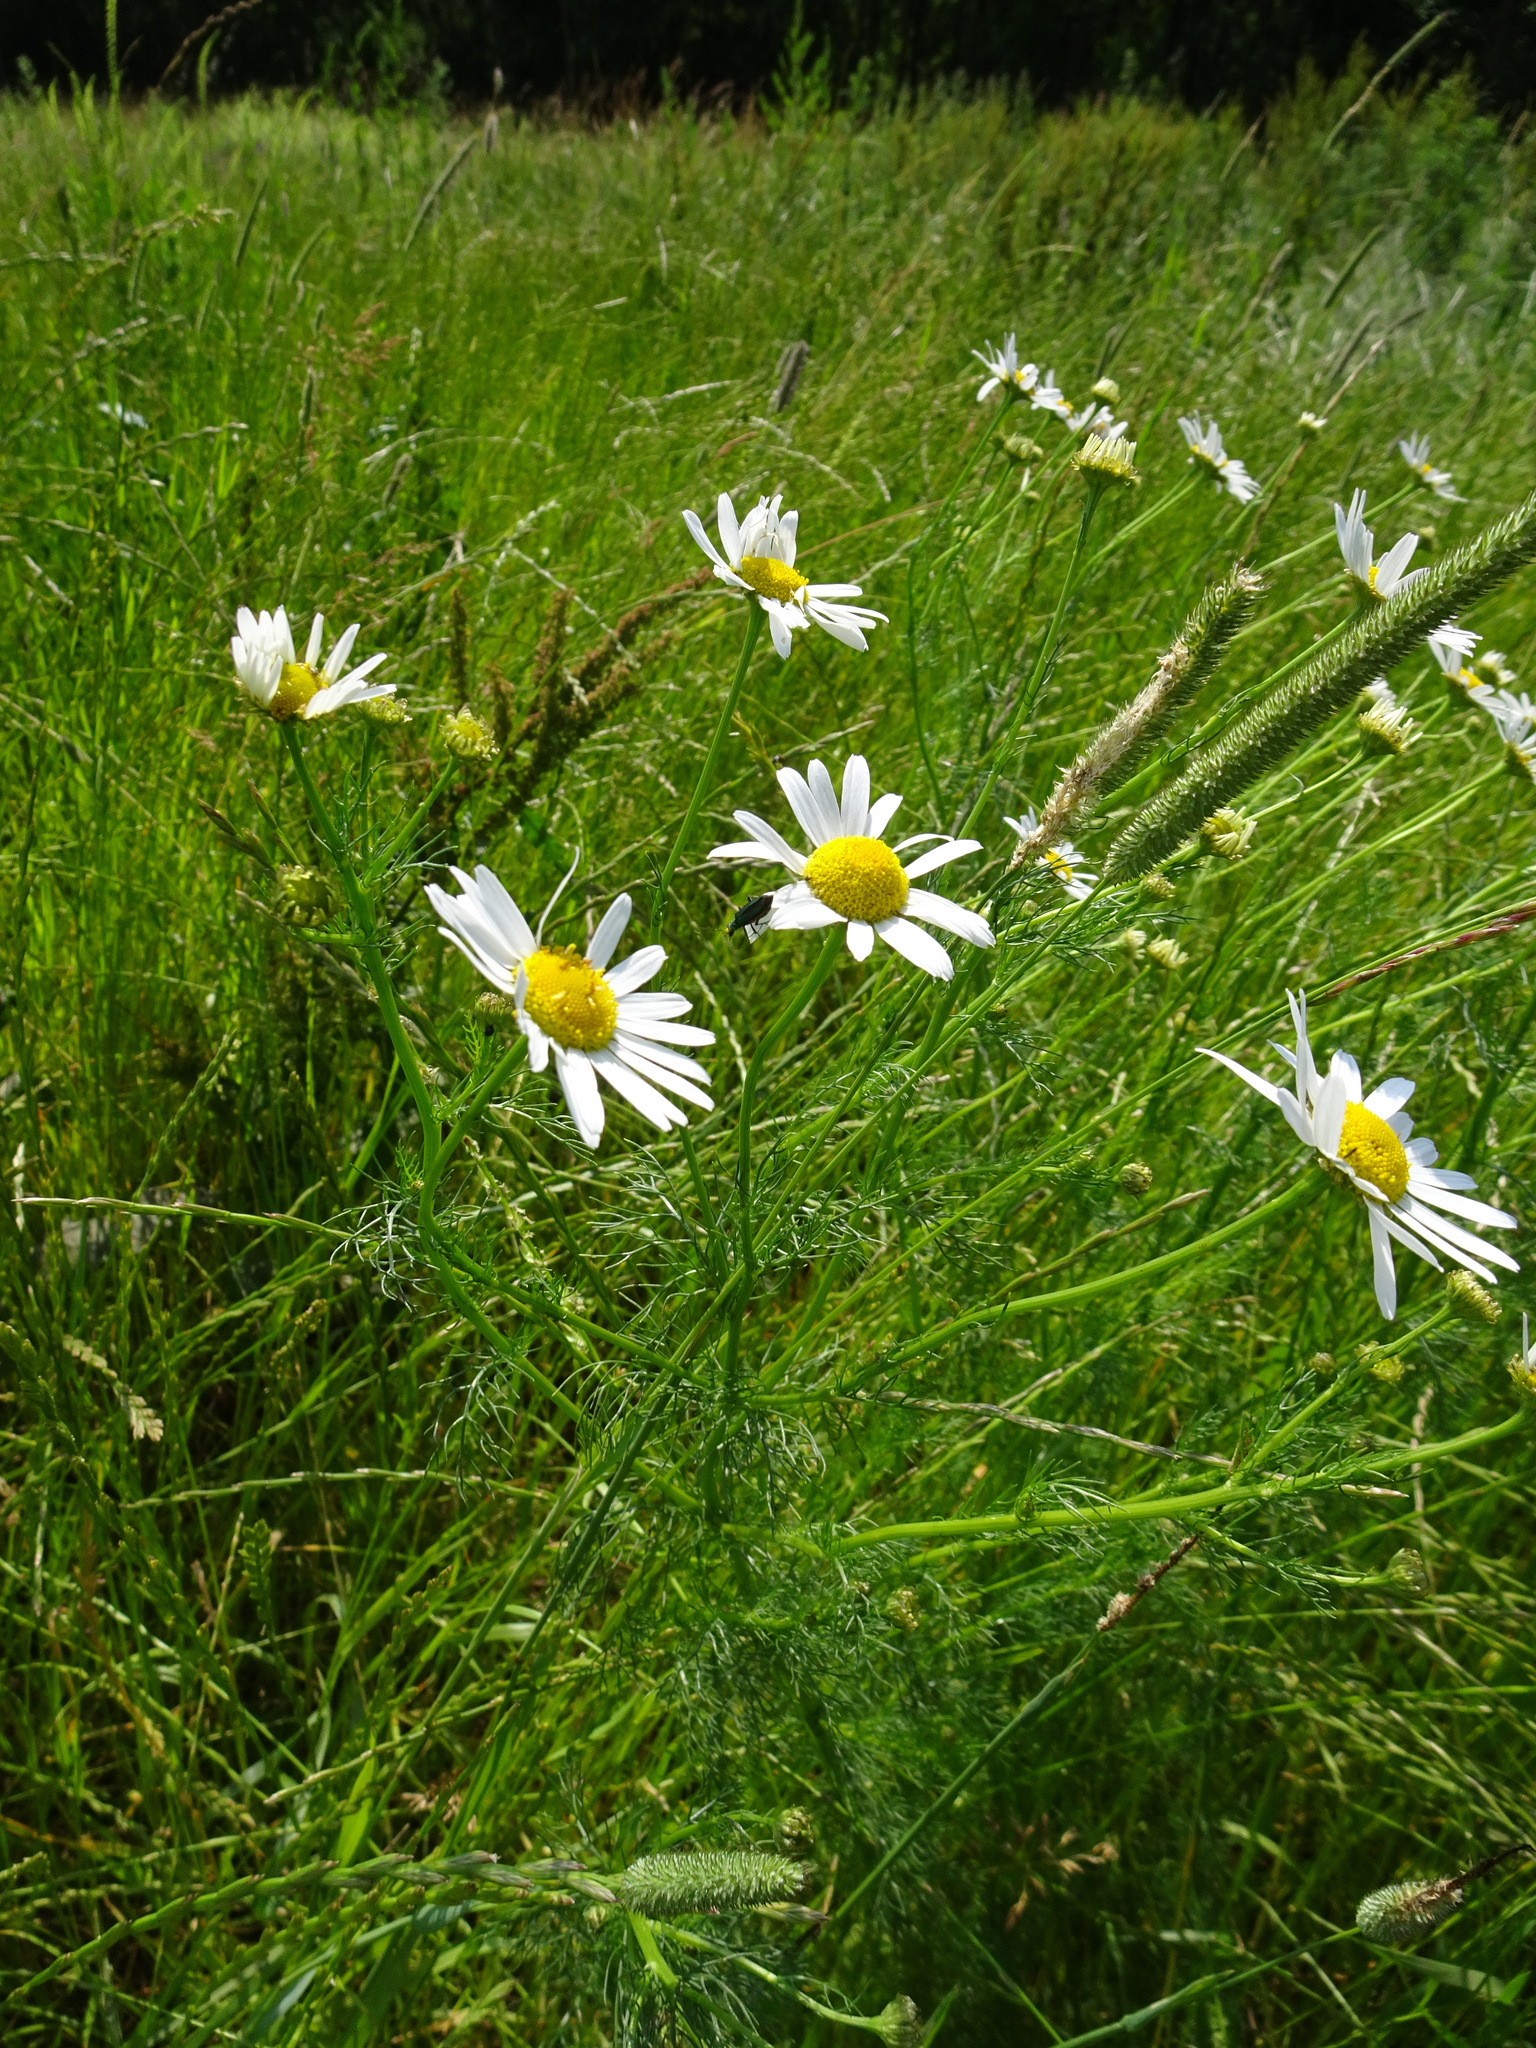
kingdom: Plantae
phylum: Tracheophyta
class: Magnoliopsida
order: Asterales
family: Asteraceae
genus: Tripleurospermum
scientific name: Tripleurospermum inodorum
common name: Scentless mayweed
